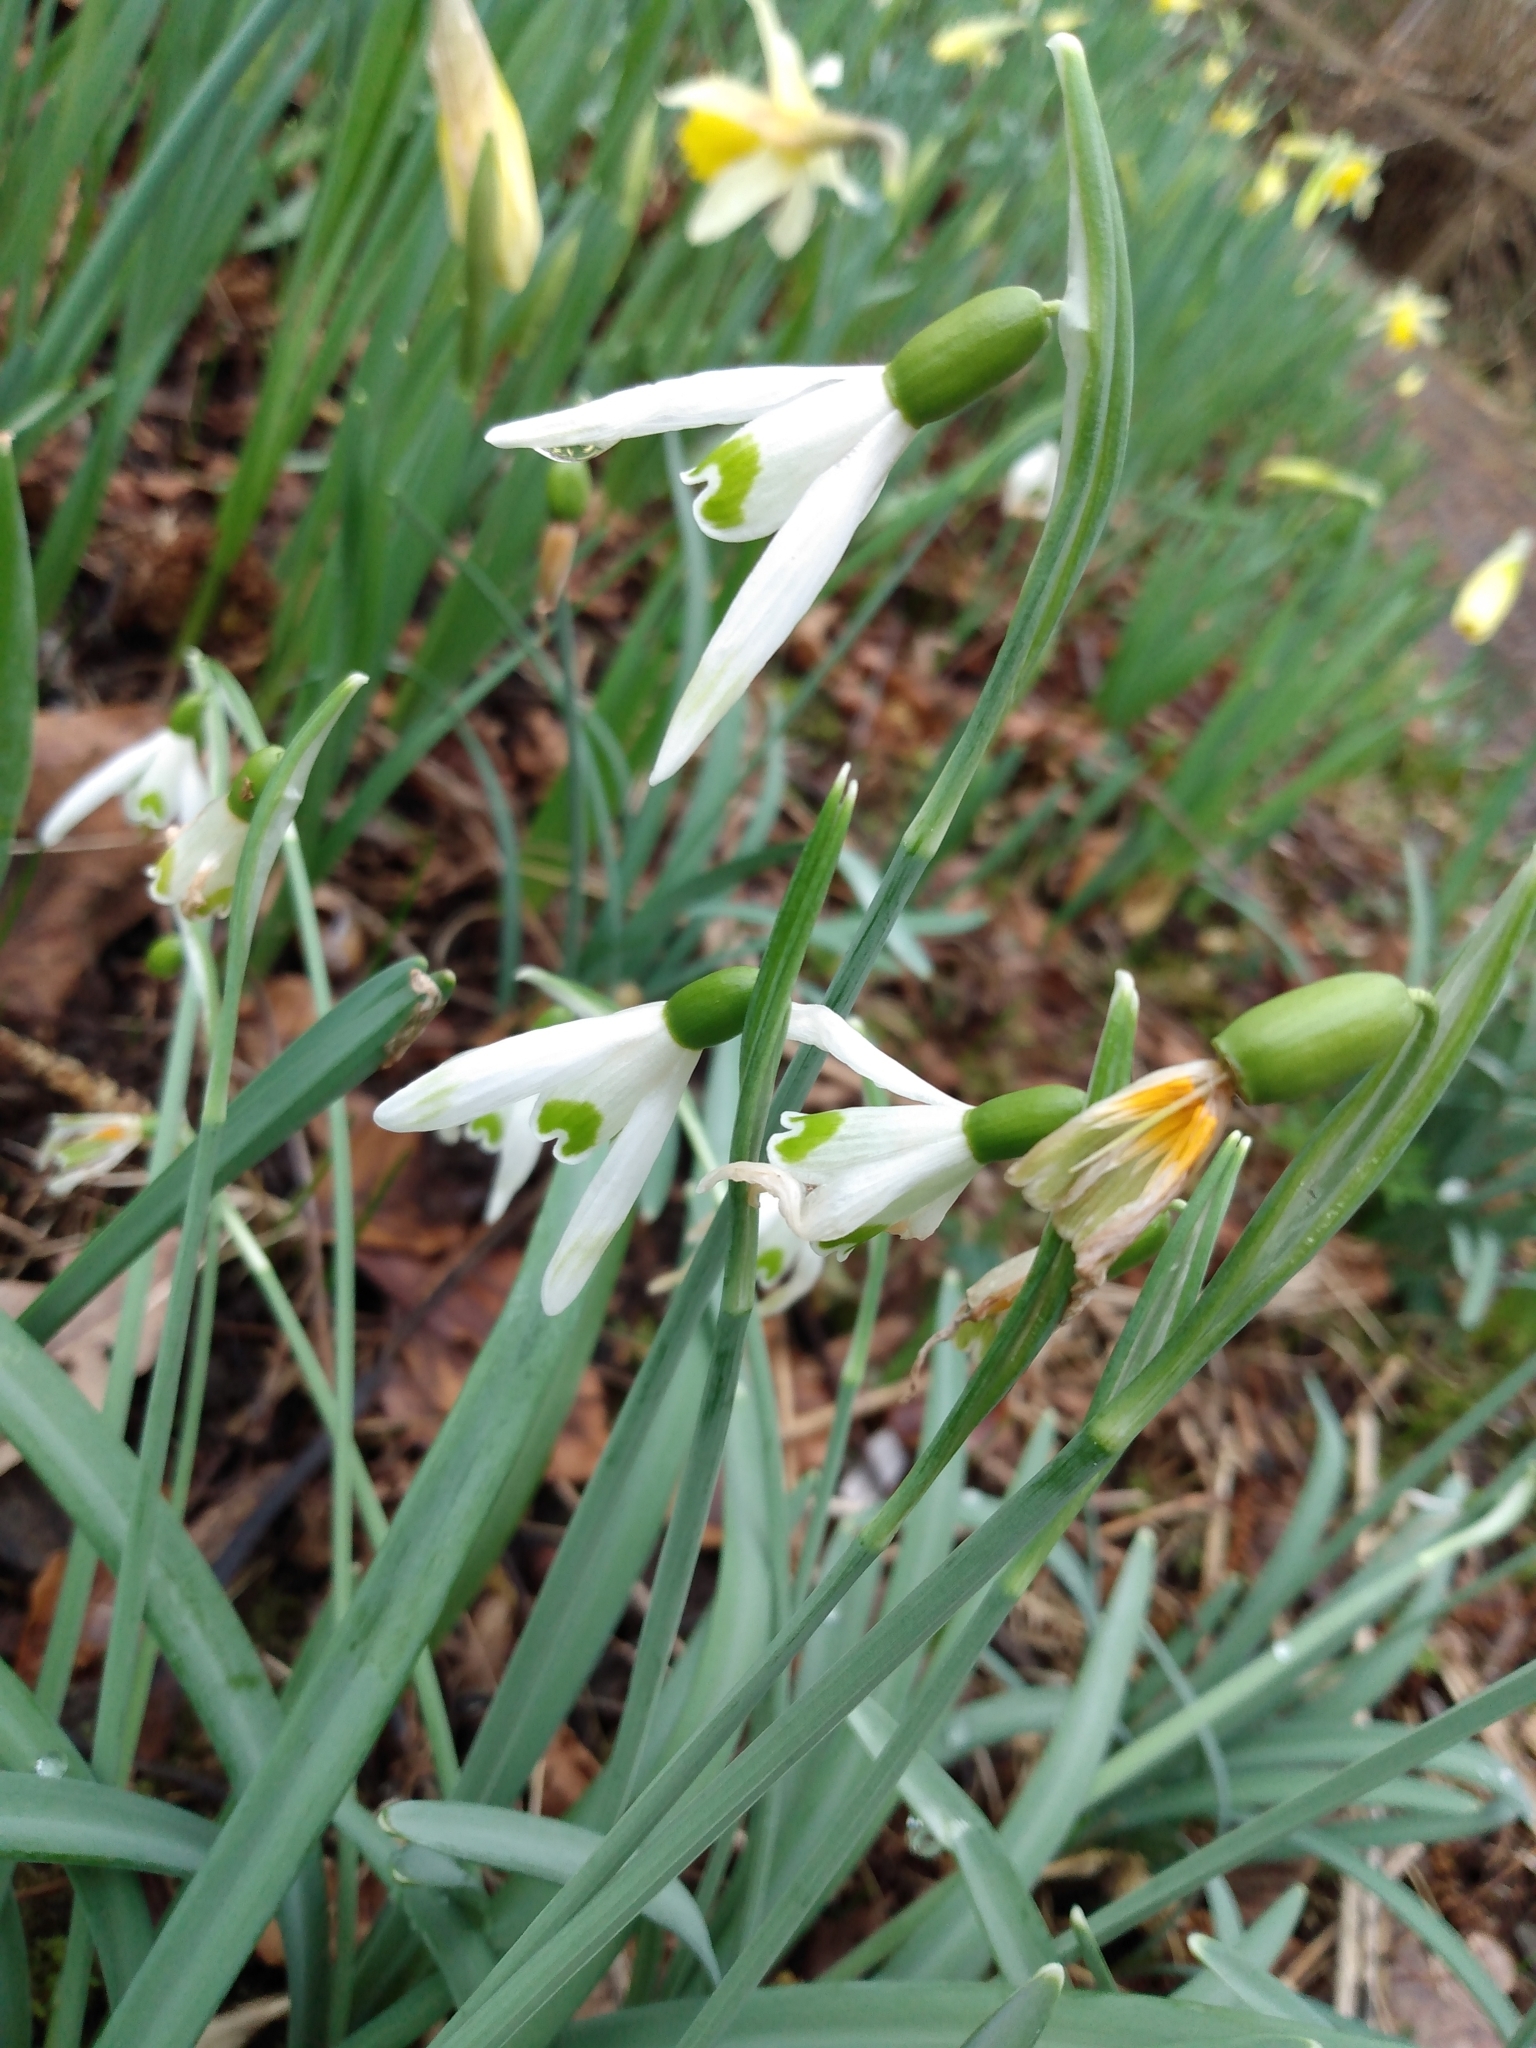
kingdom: Plantae
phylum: Tracheophyta
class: Liliopsida
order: Asparagales
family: Amaryllidaceae
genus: Galanthus
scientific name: Galanthus nivalis
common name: Snowdrop
